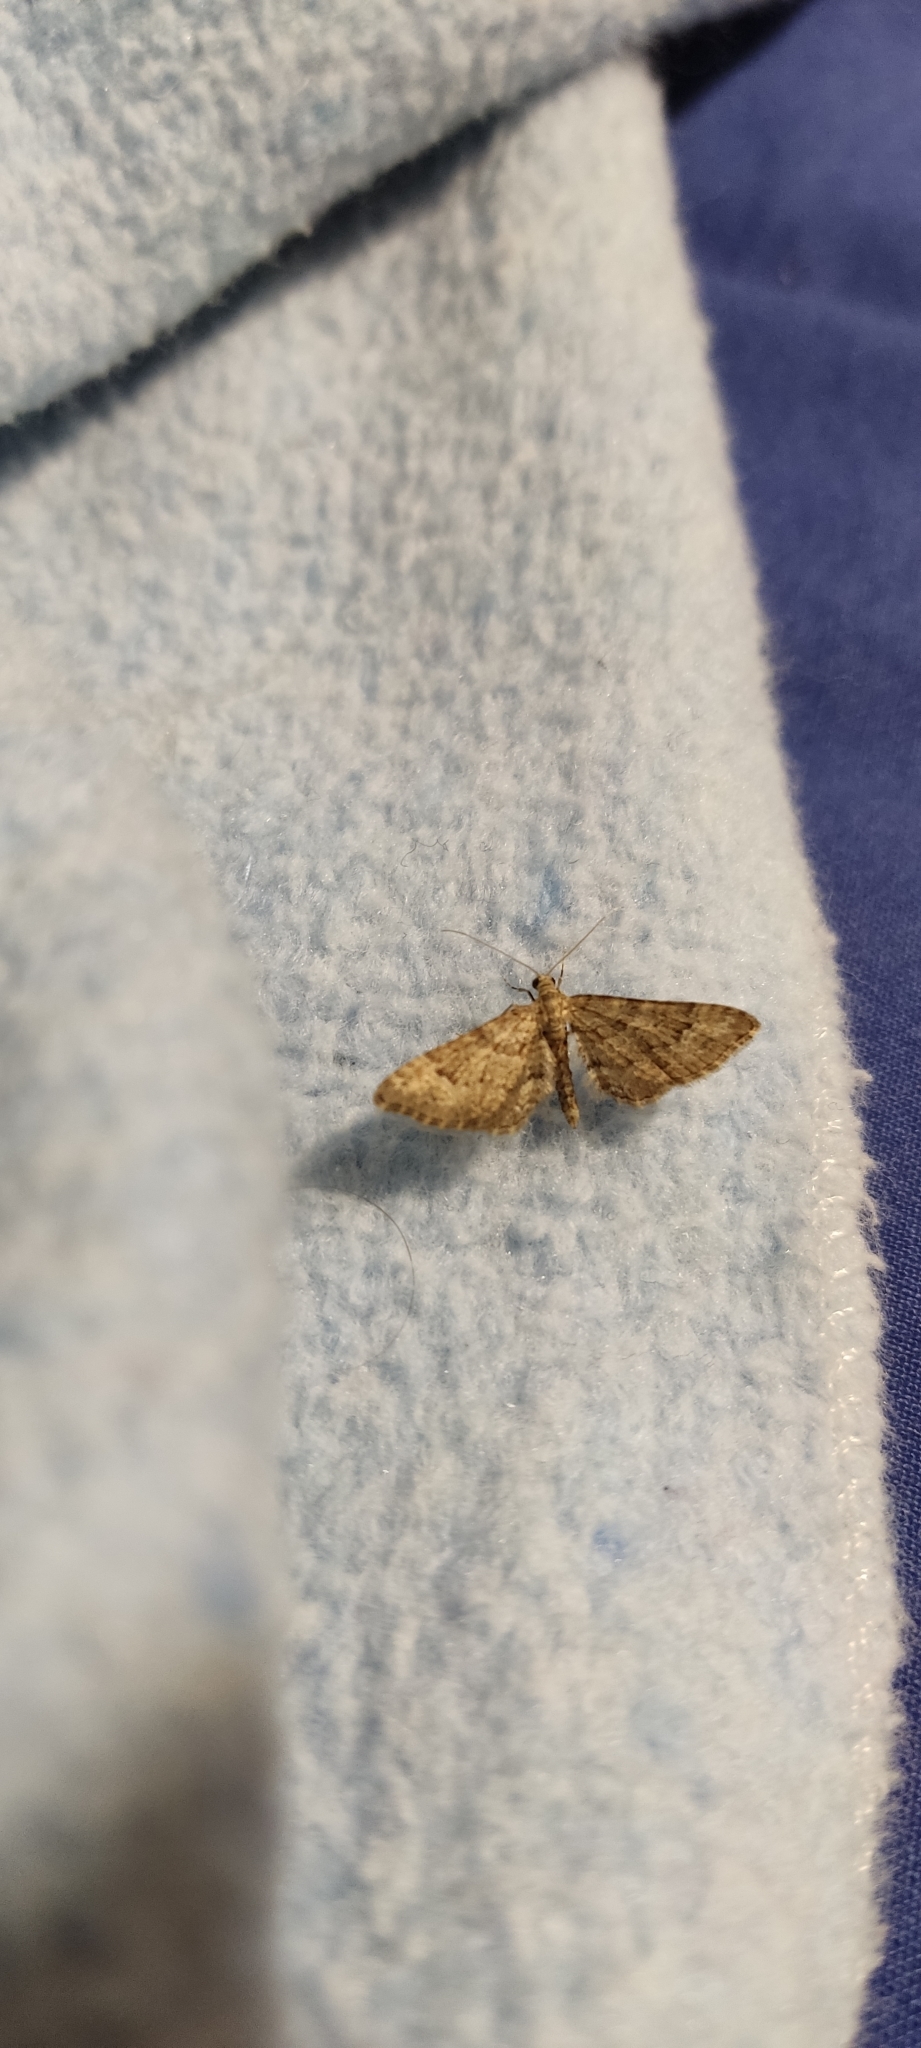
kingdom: Animalia
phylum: Arthropoda
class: Insecta
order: Lepidoptera
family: Geometridae
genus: Gymnoscelis
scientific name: Gymnoscelis rufifasciata
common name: Double-striped pug
